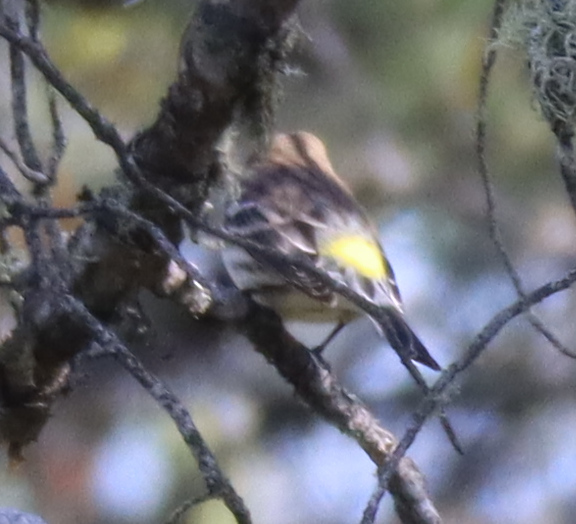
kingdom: Animalia
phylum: Chordata
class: Aves
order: Passeriformes
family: Parulidae
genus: Setophaga
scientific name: Setophaga coronata
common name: Myrtle warbler
